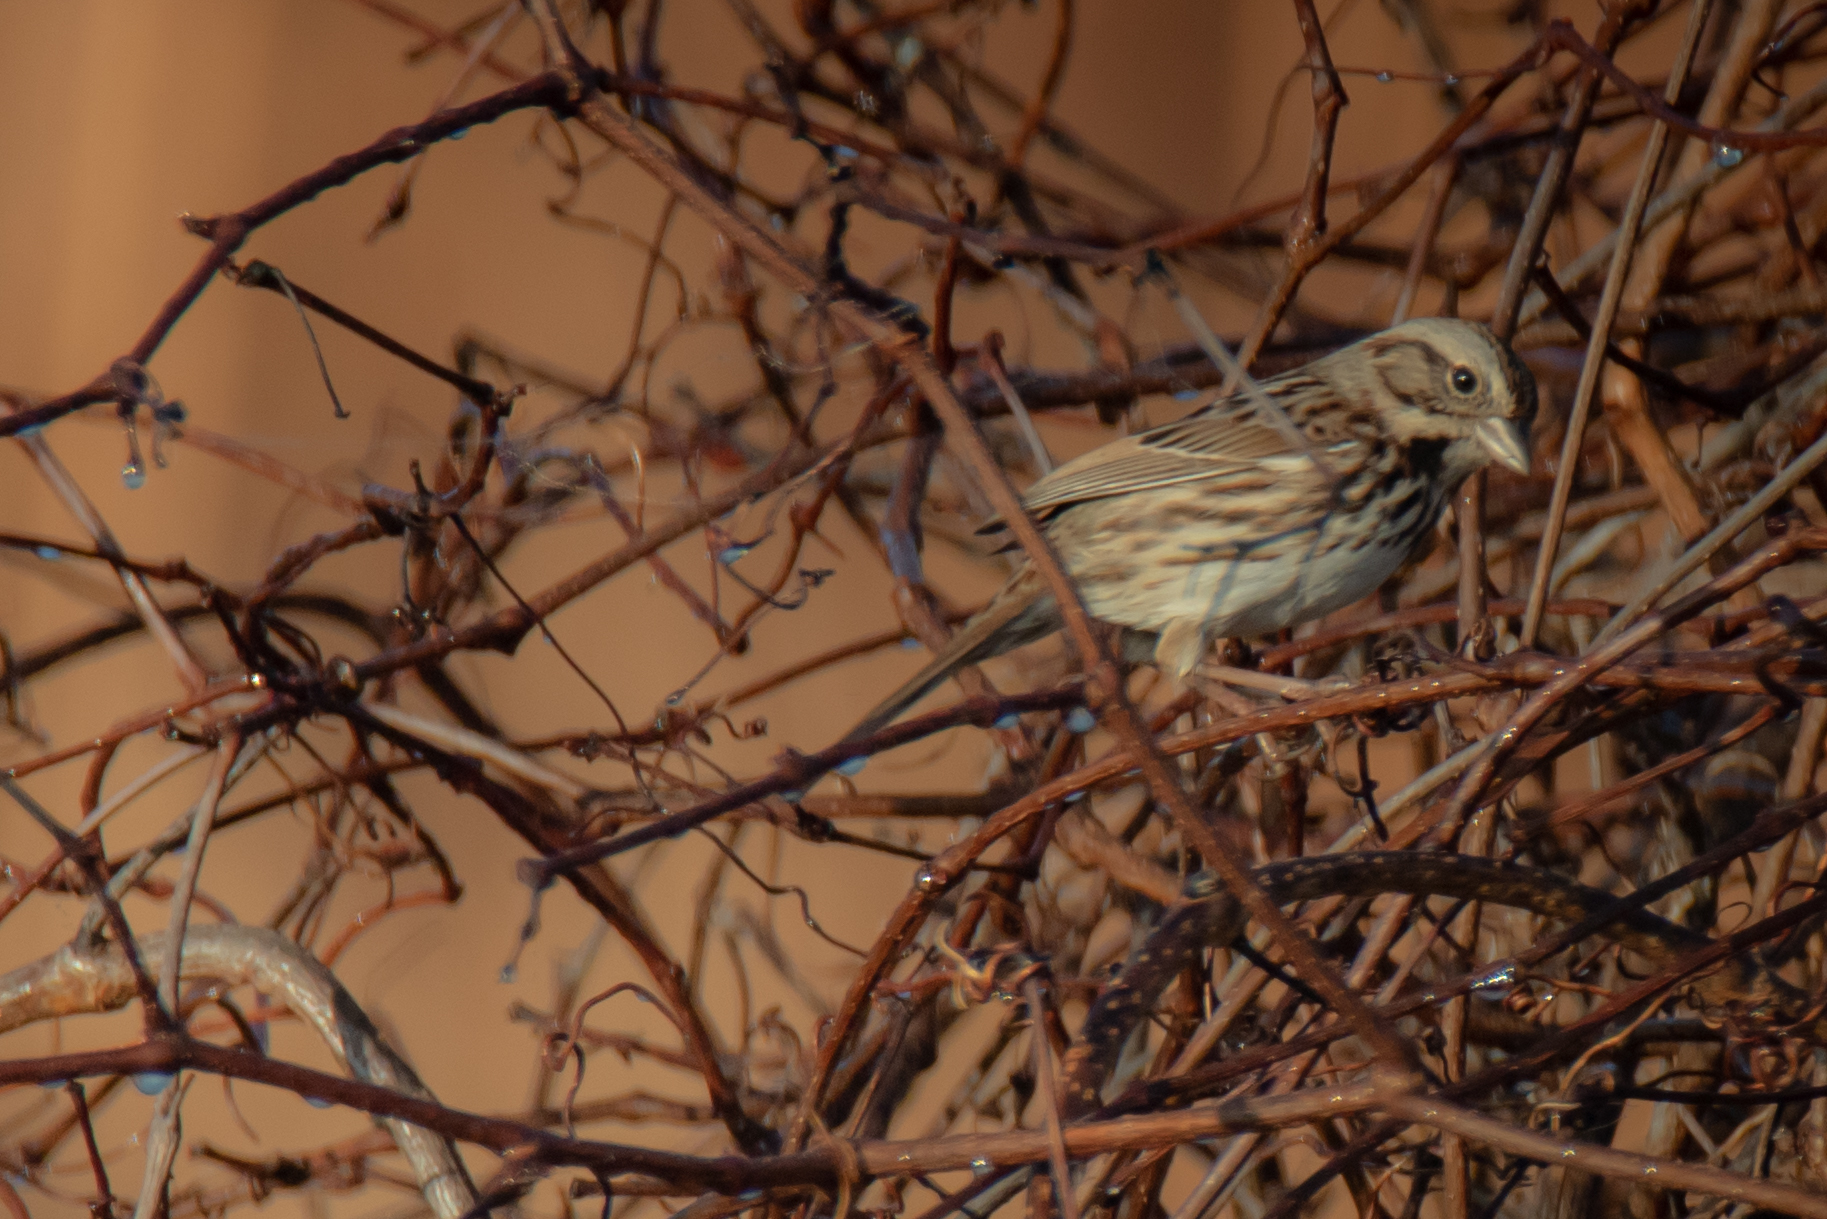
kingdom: Animalia
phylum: Chordata
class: Aves
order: Passeriformes
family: Passerellidae
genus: Melospiza
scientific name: Melospiza melodia
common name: Song sparrow
